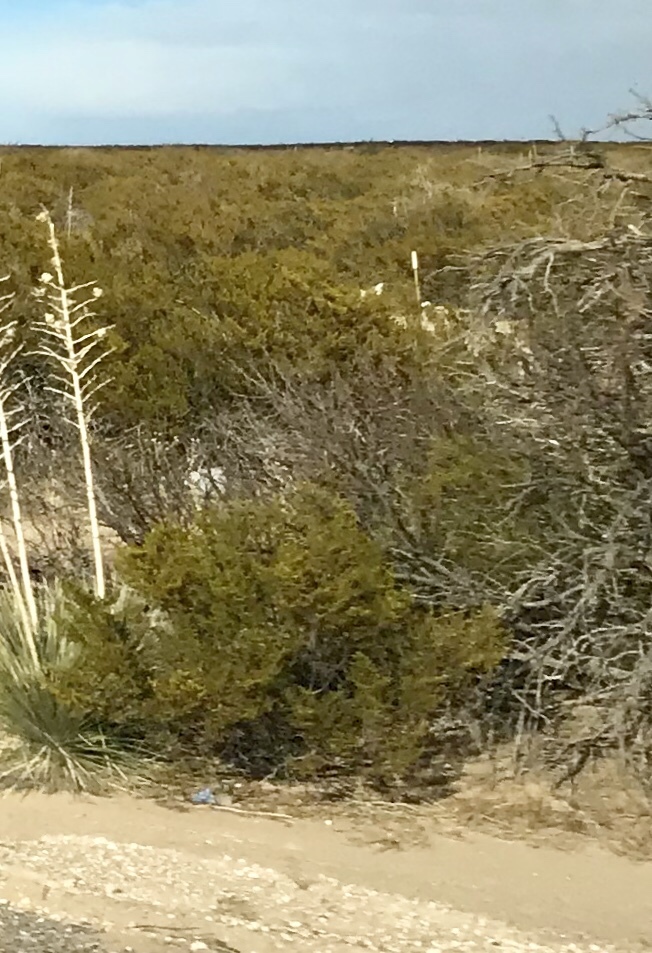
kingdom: Plantae
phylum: Tracheophyta
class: Magnoliopsida
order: Zygophyllales
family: Zygophyllaceae
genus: Larrea
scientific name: Larrea tridentata
